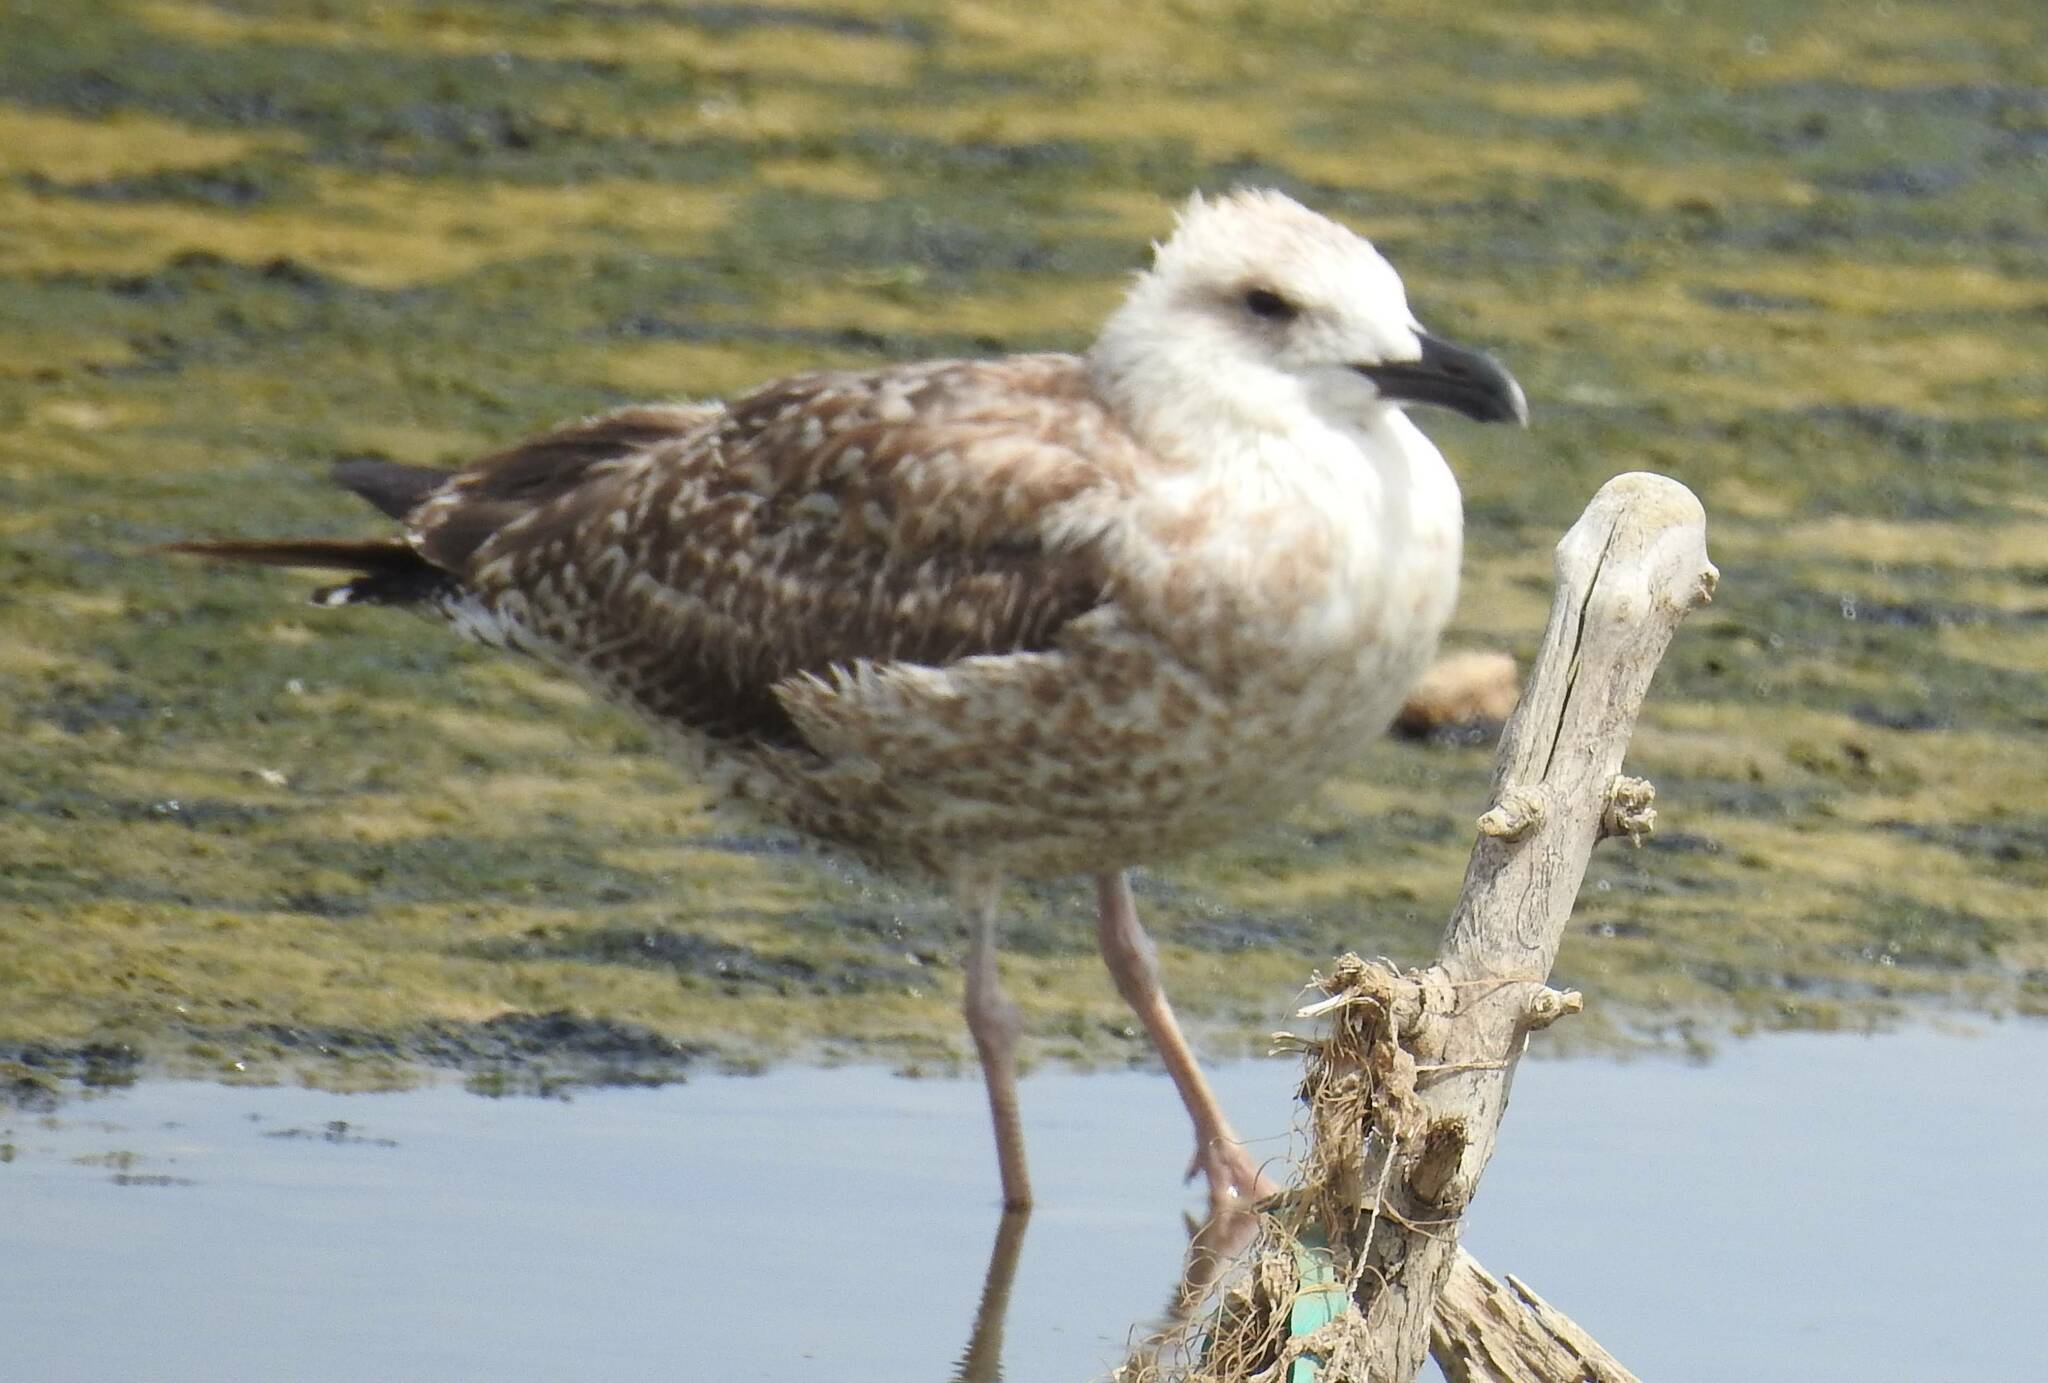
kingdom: Animalia
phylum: Chordata
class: Aves
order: Charadriiformes
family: Laridae
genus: Larus
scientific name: Larus fuscus
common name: Lesser black-backed gull
